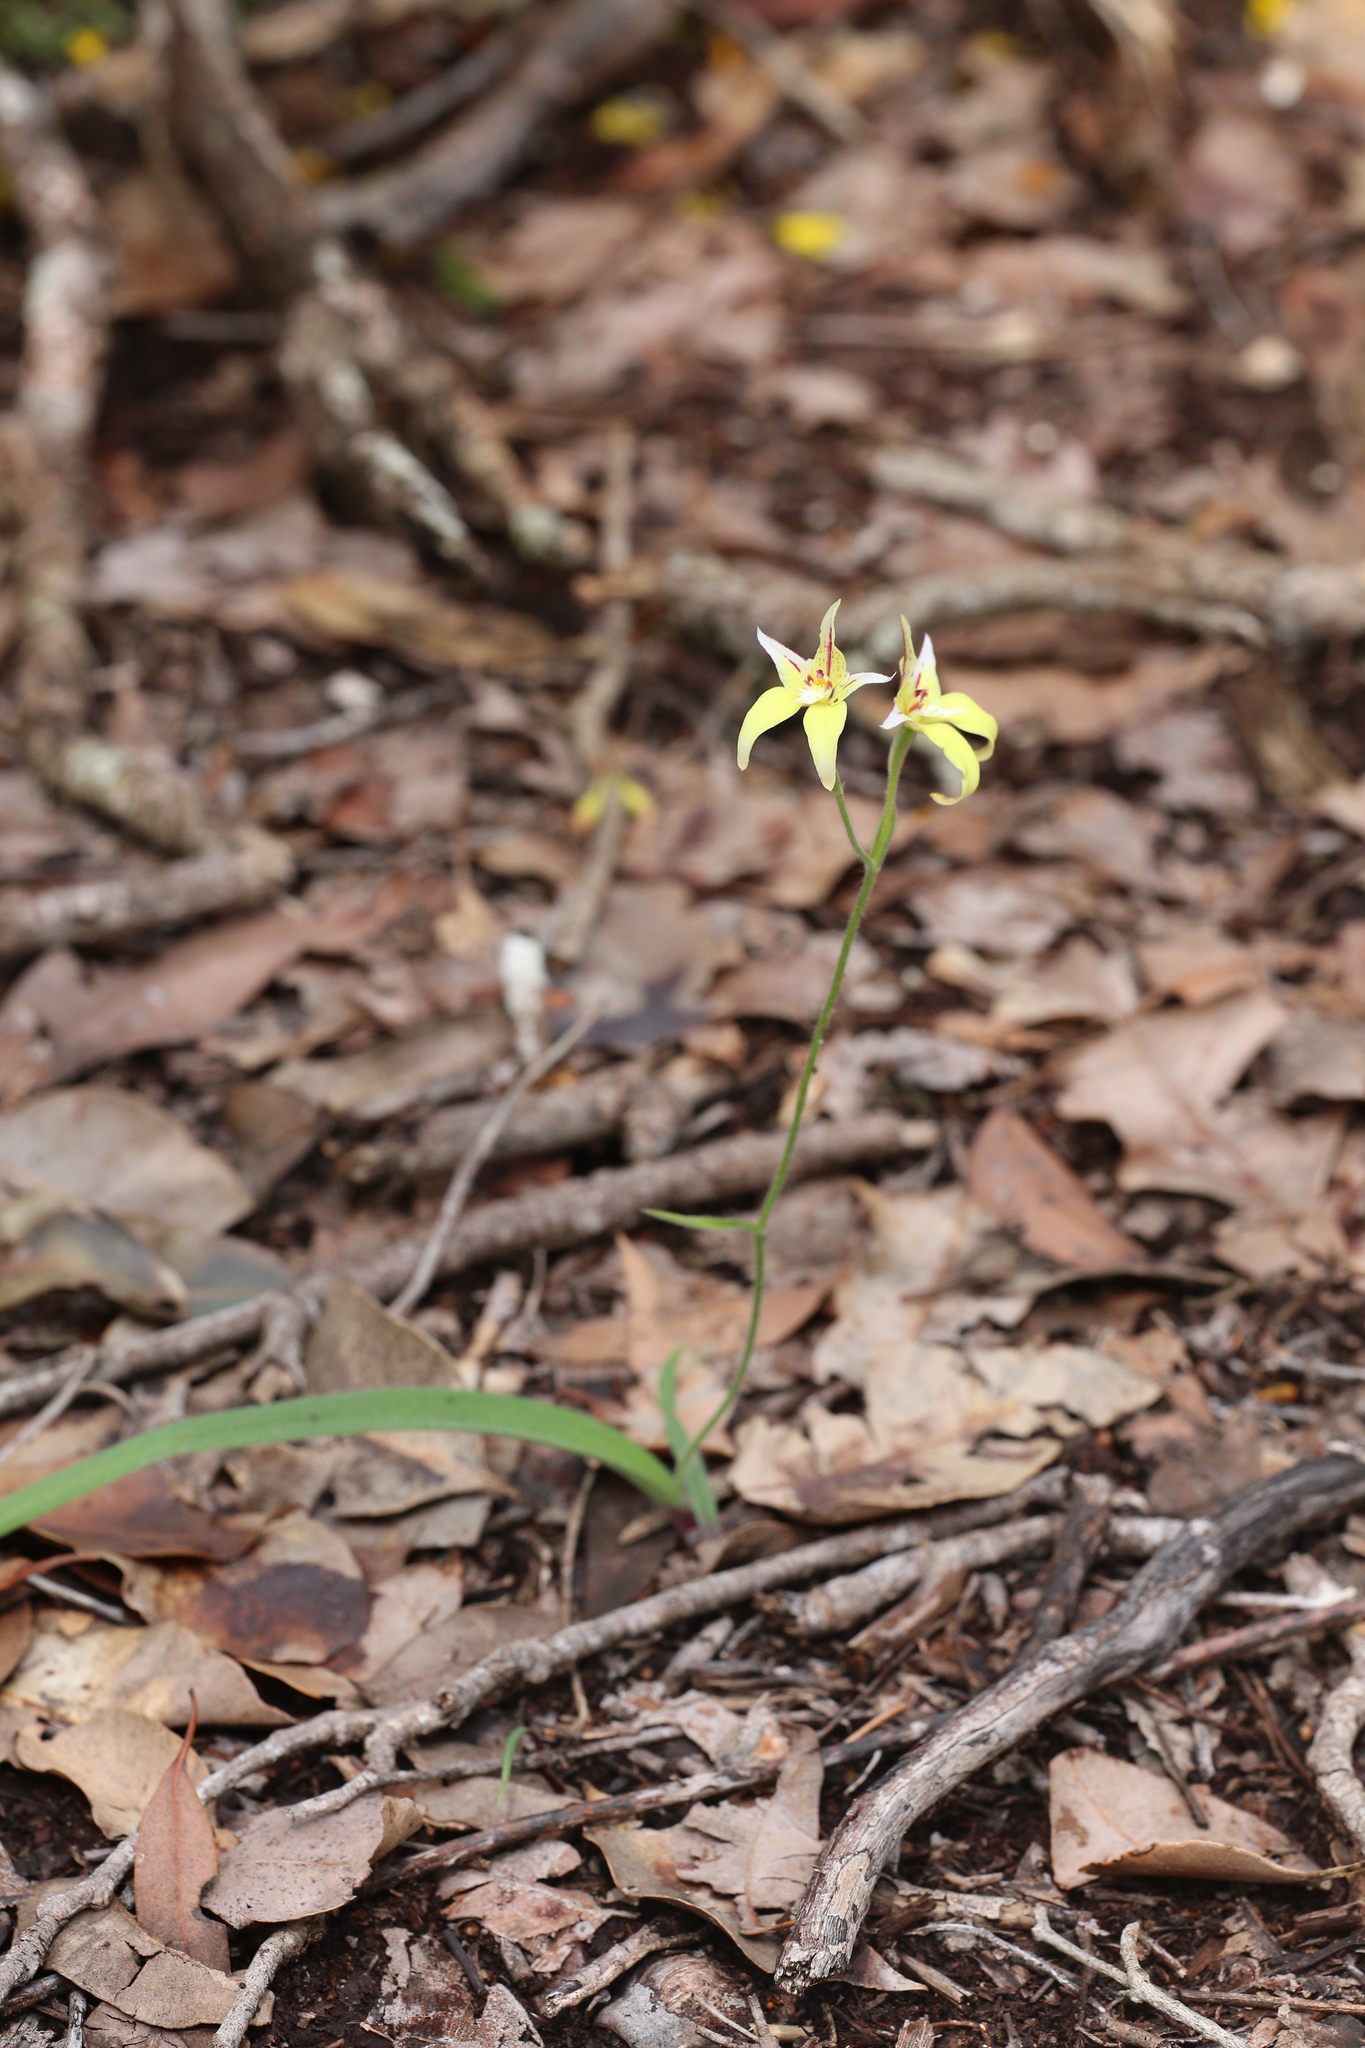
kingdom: Plantae
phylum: Tracheophyta
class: Liliopsida
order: Asparagales
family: Orchidaceae
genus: Caladenia
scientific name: Caladenia flava
